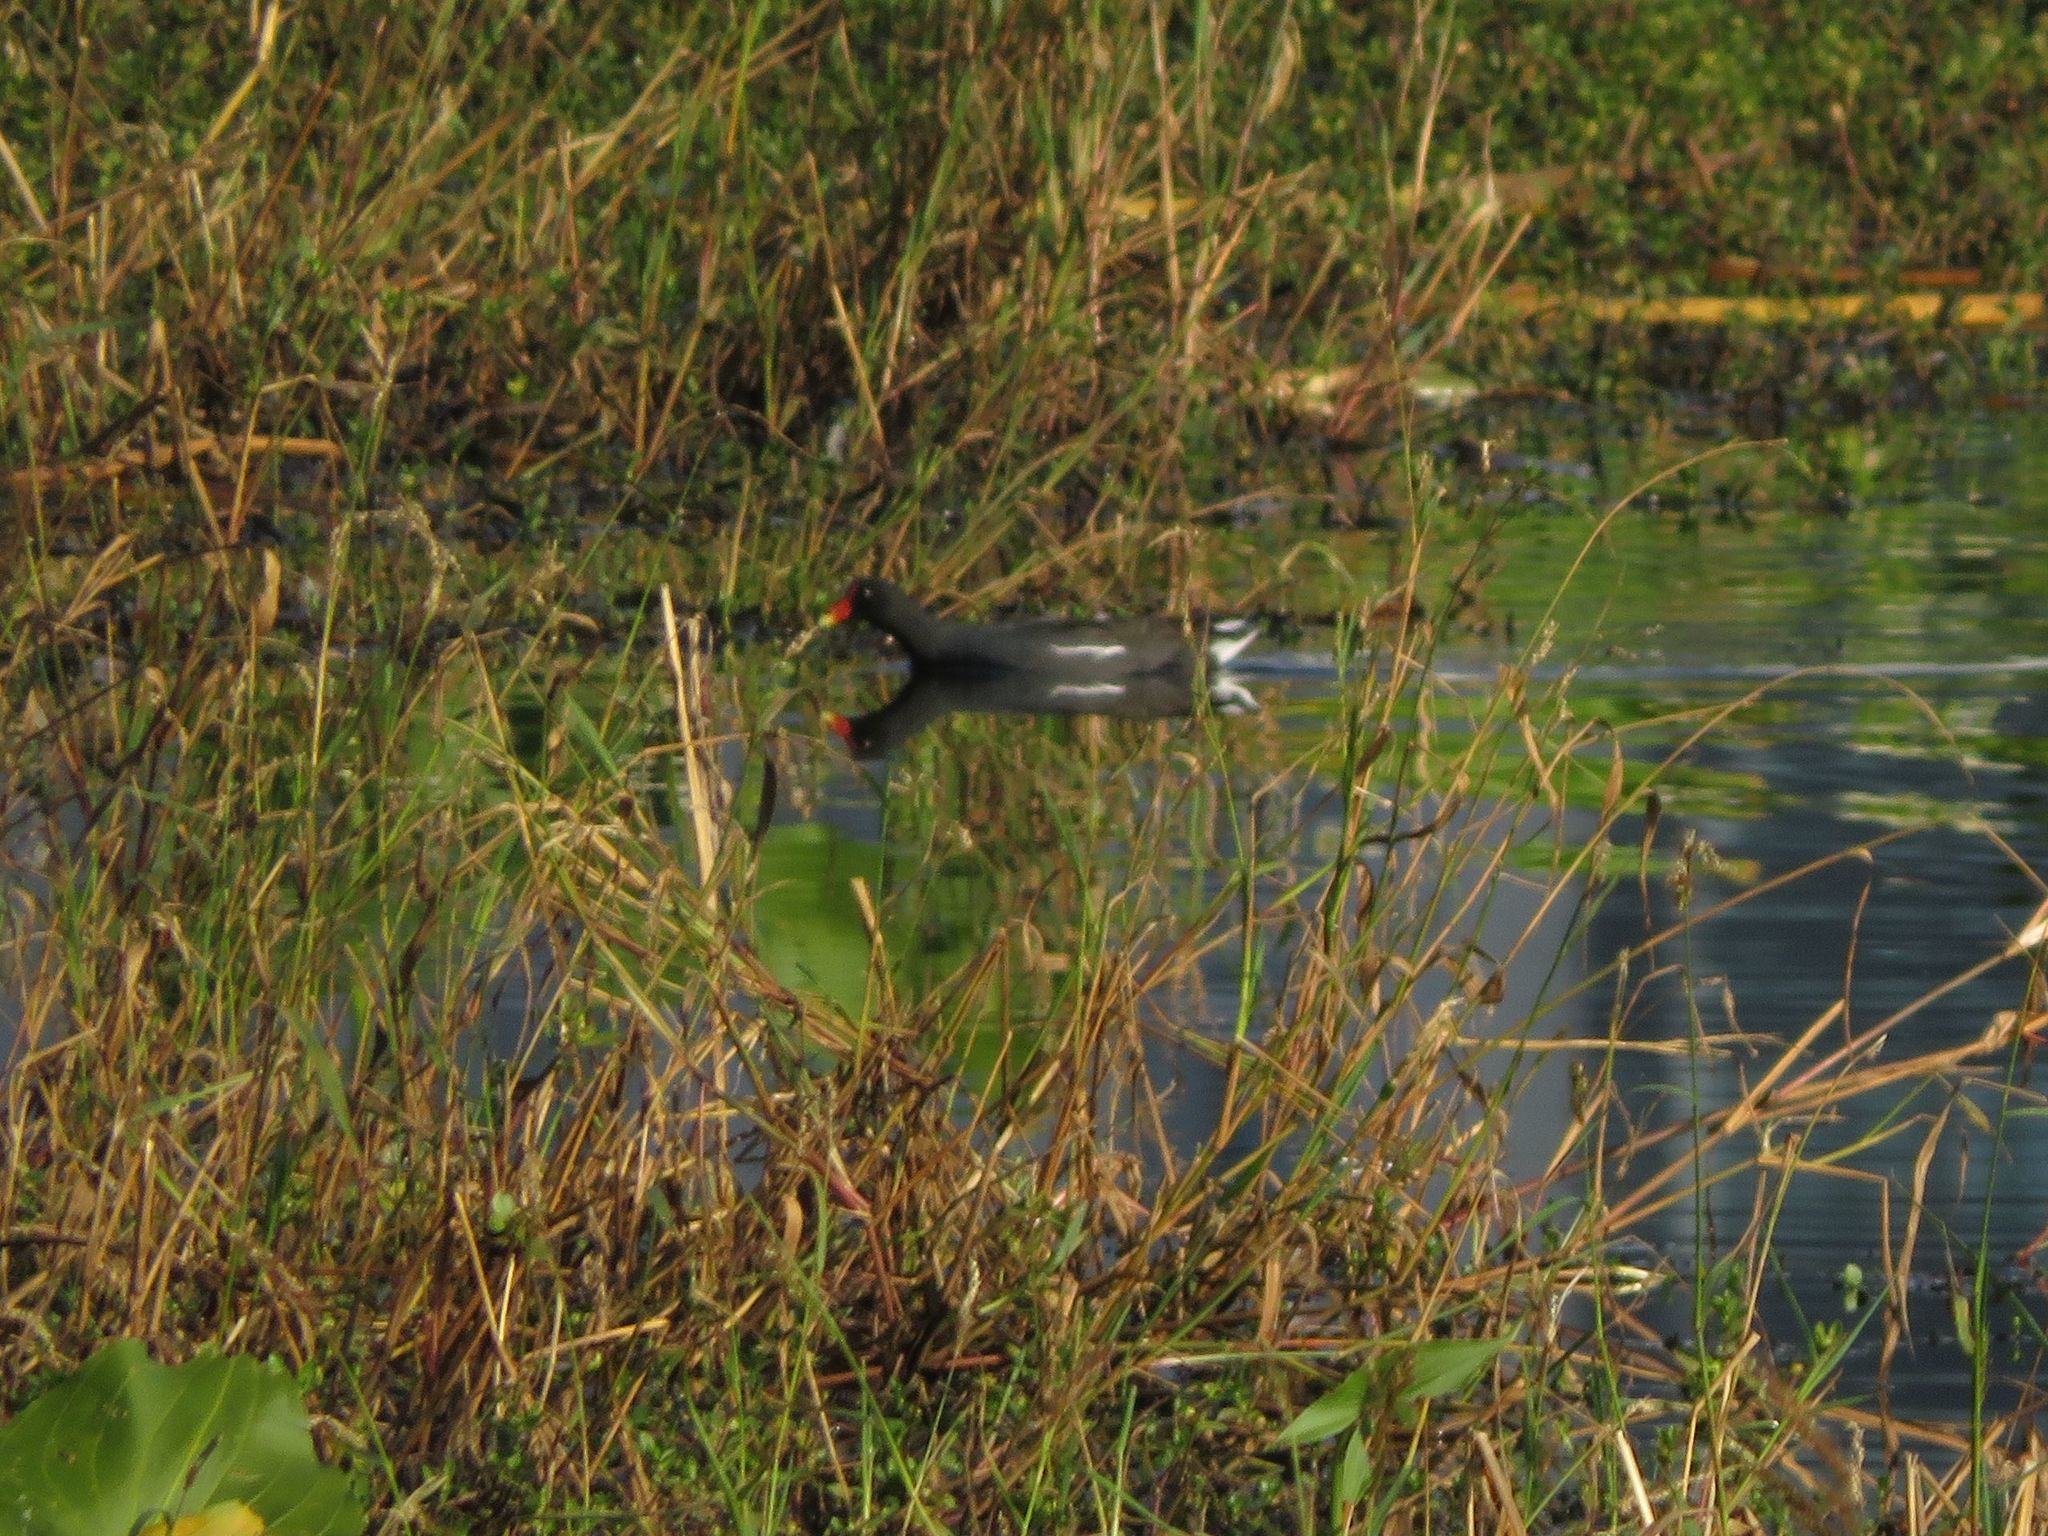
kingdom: Animalia
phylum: Chordata
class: Aves
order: Gruiformes
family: Rallidae
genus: Gallinula
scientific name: Gallinula chloropus
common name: Common moorhen
